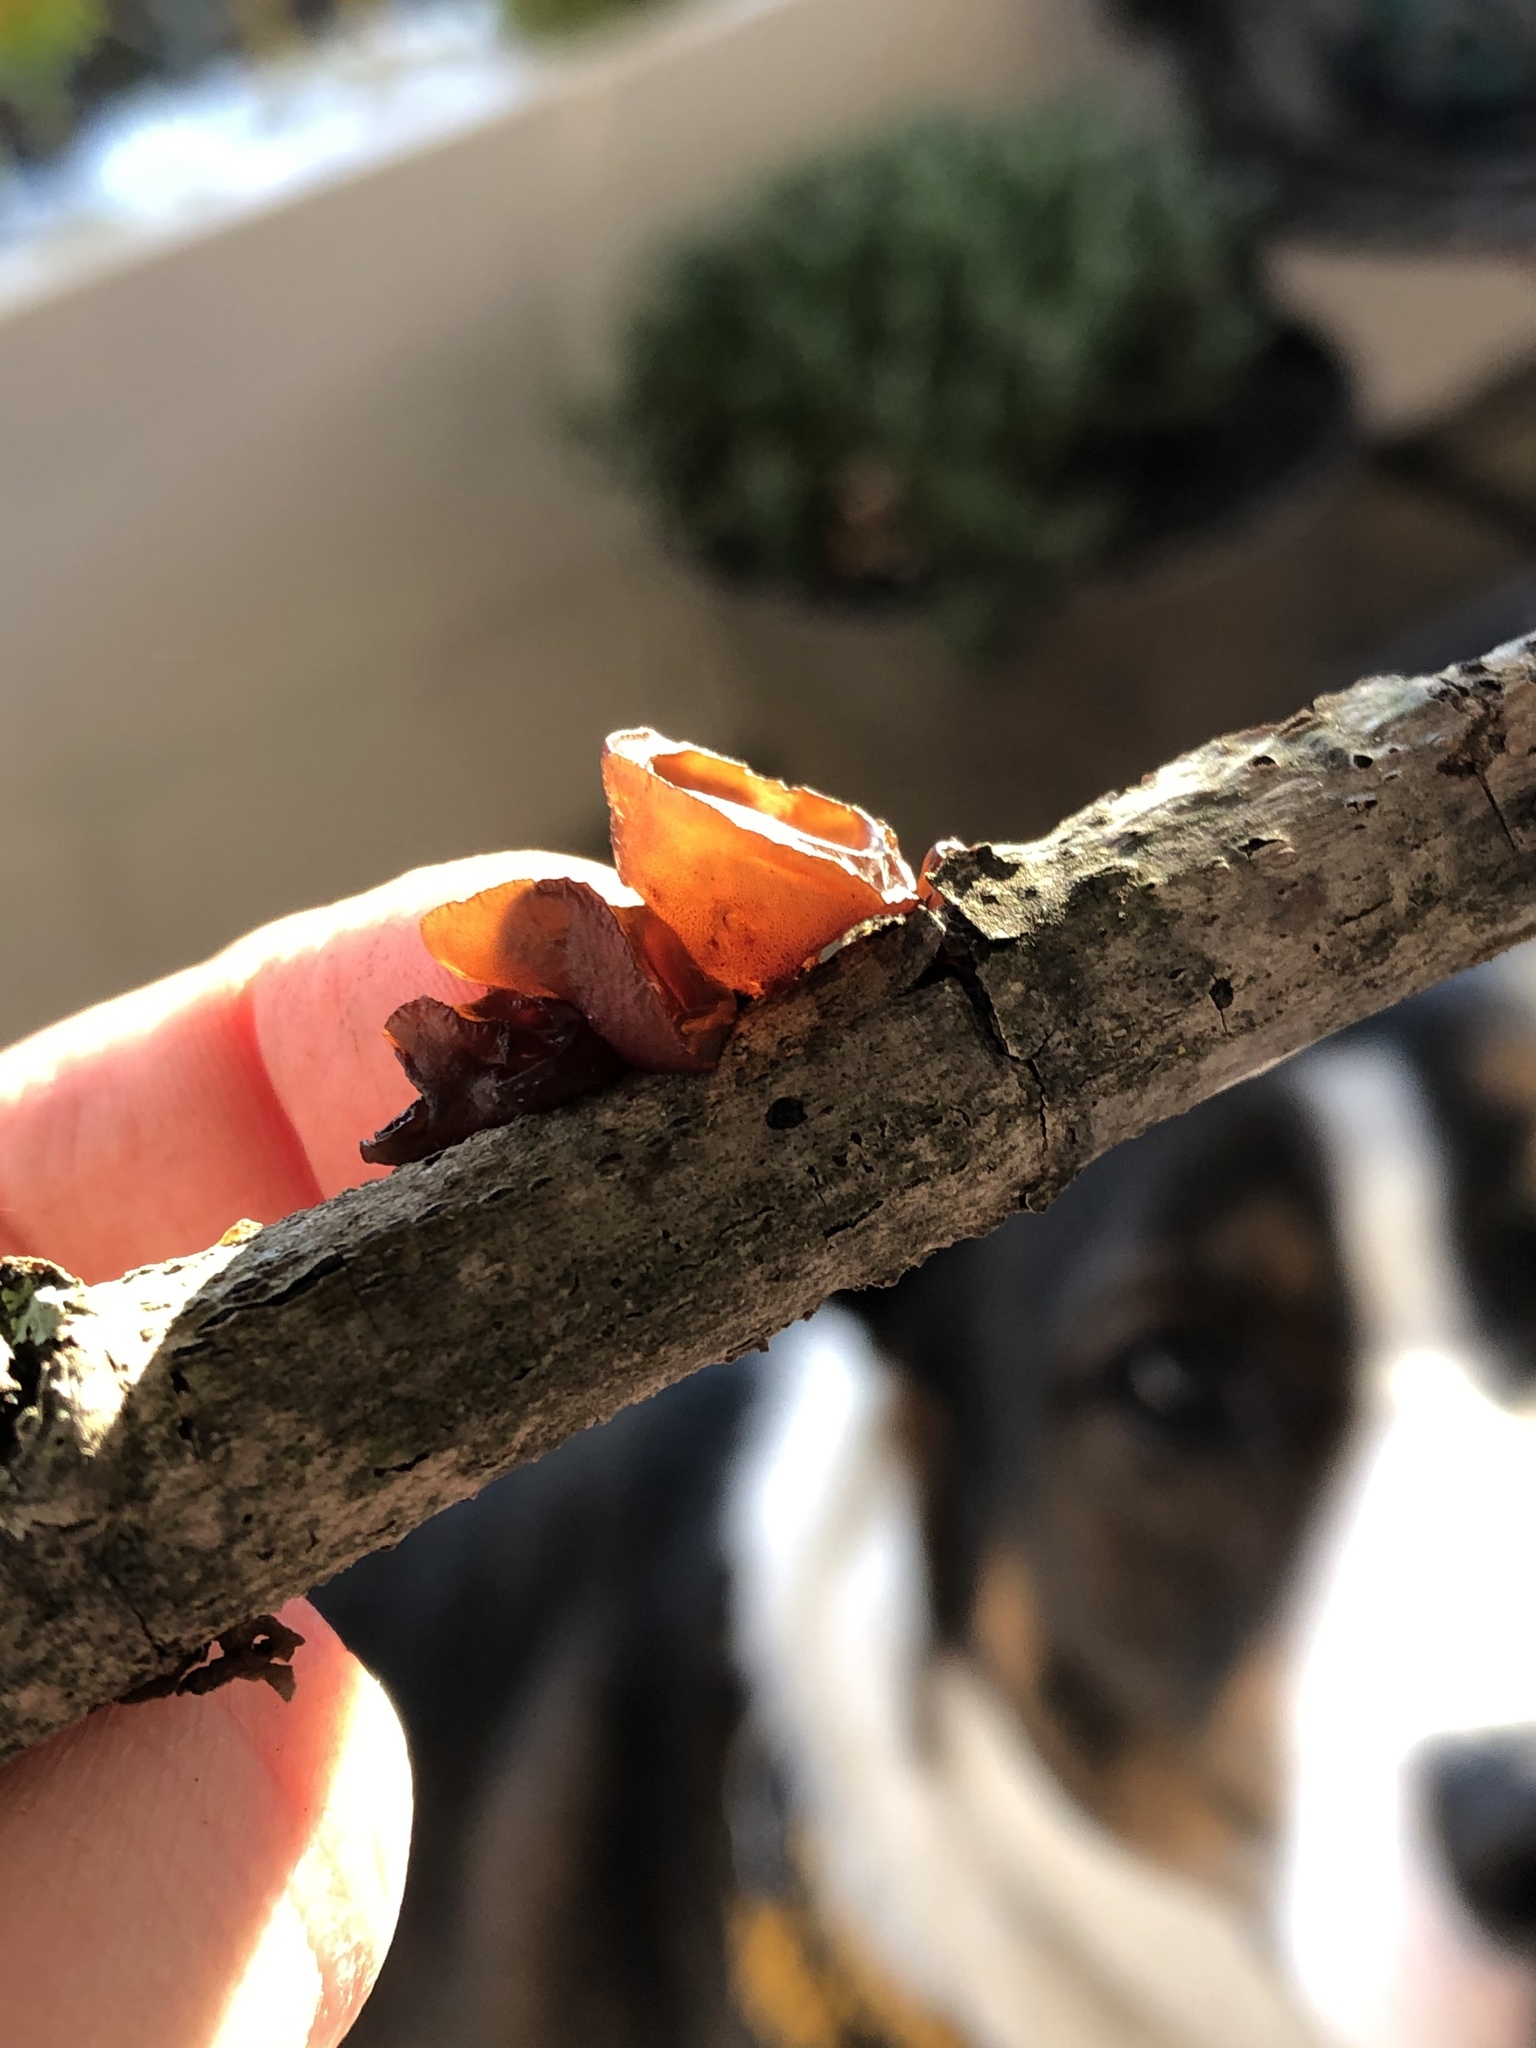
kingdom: Fungi
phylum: Basidiomycota
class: Agaricomycetes
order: Auriculariales
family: Auriculariaceae
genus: Exidia
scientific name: Exidia
